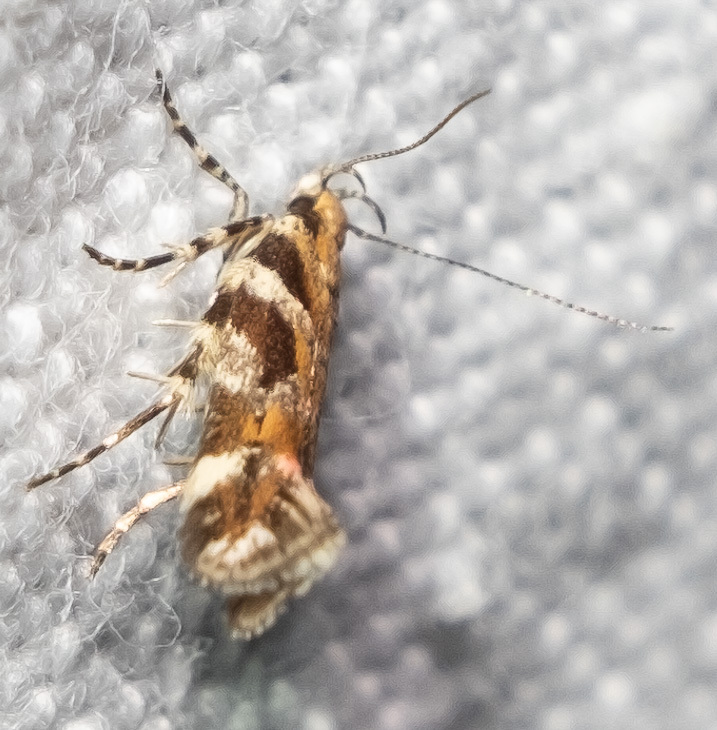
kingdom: Animalia
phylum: Arthropoda
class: Insecta
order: Lepidoptera
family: Gelechiidae
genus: Aristotelia
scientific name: Aristotelia roseosuffusella
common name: Pink-washed aristotelia moth
